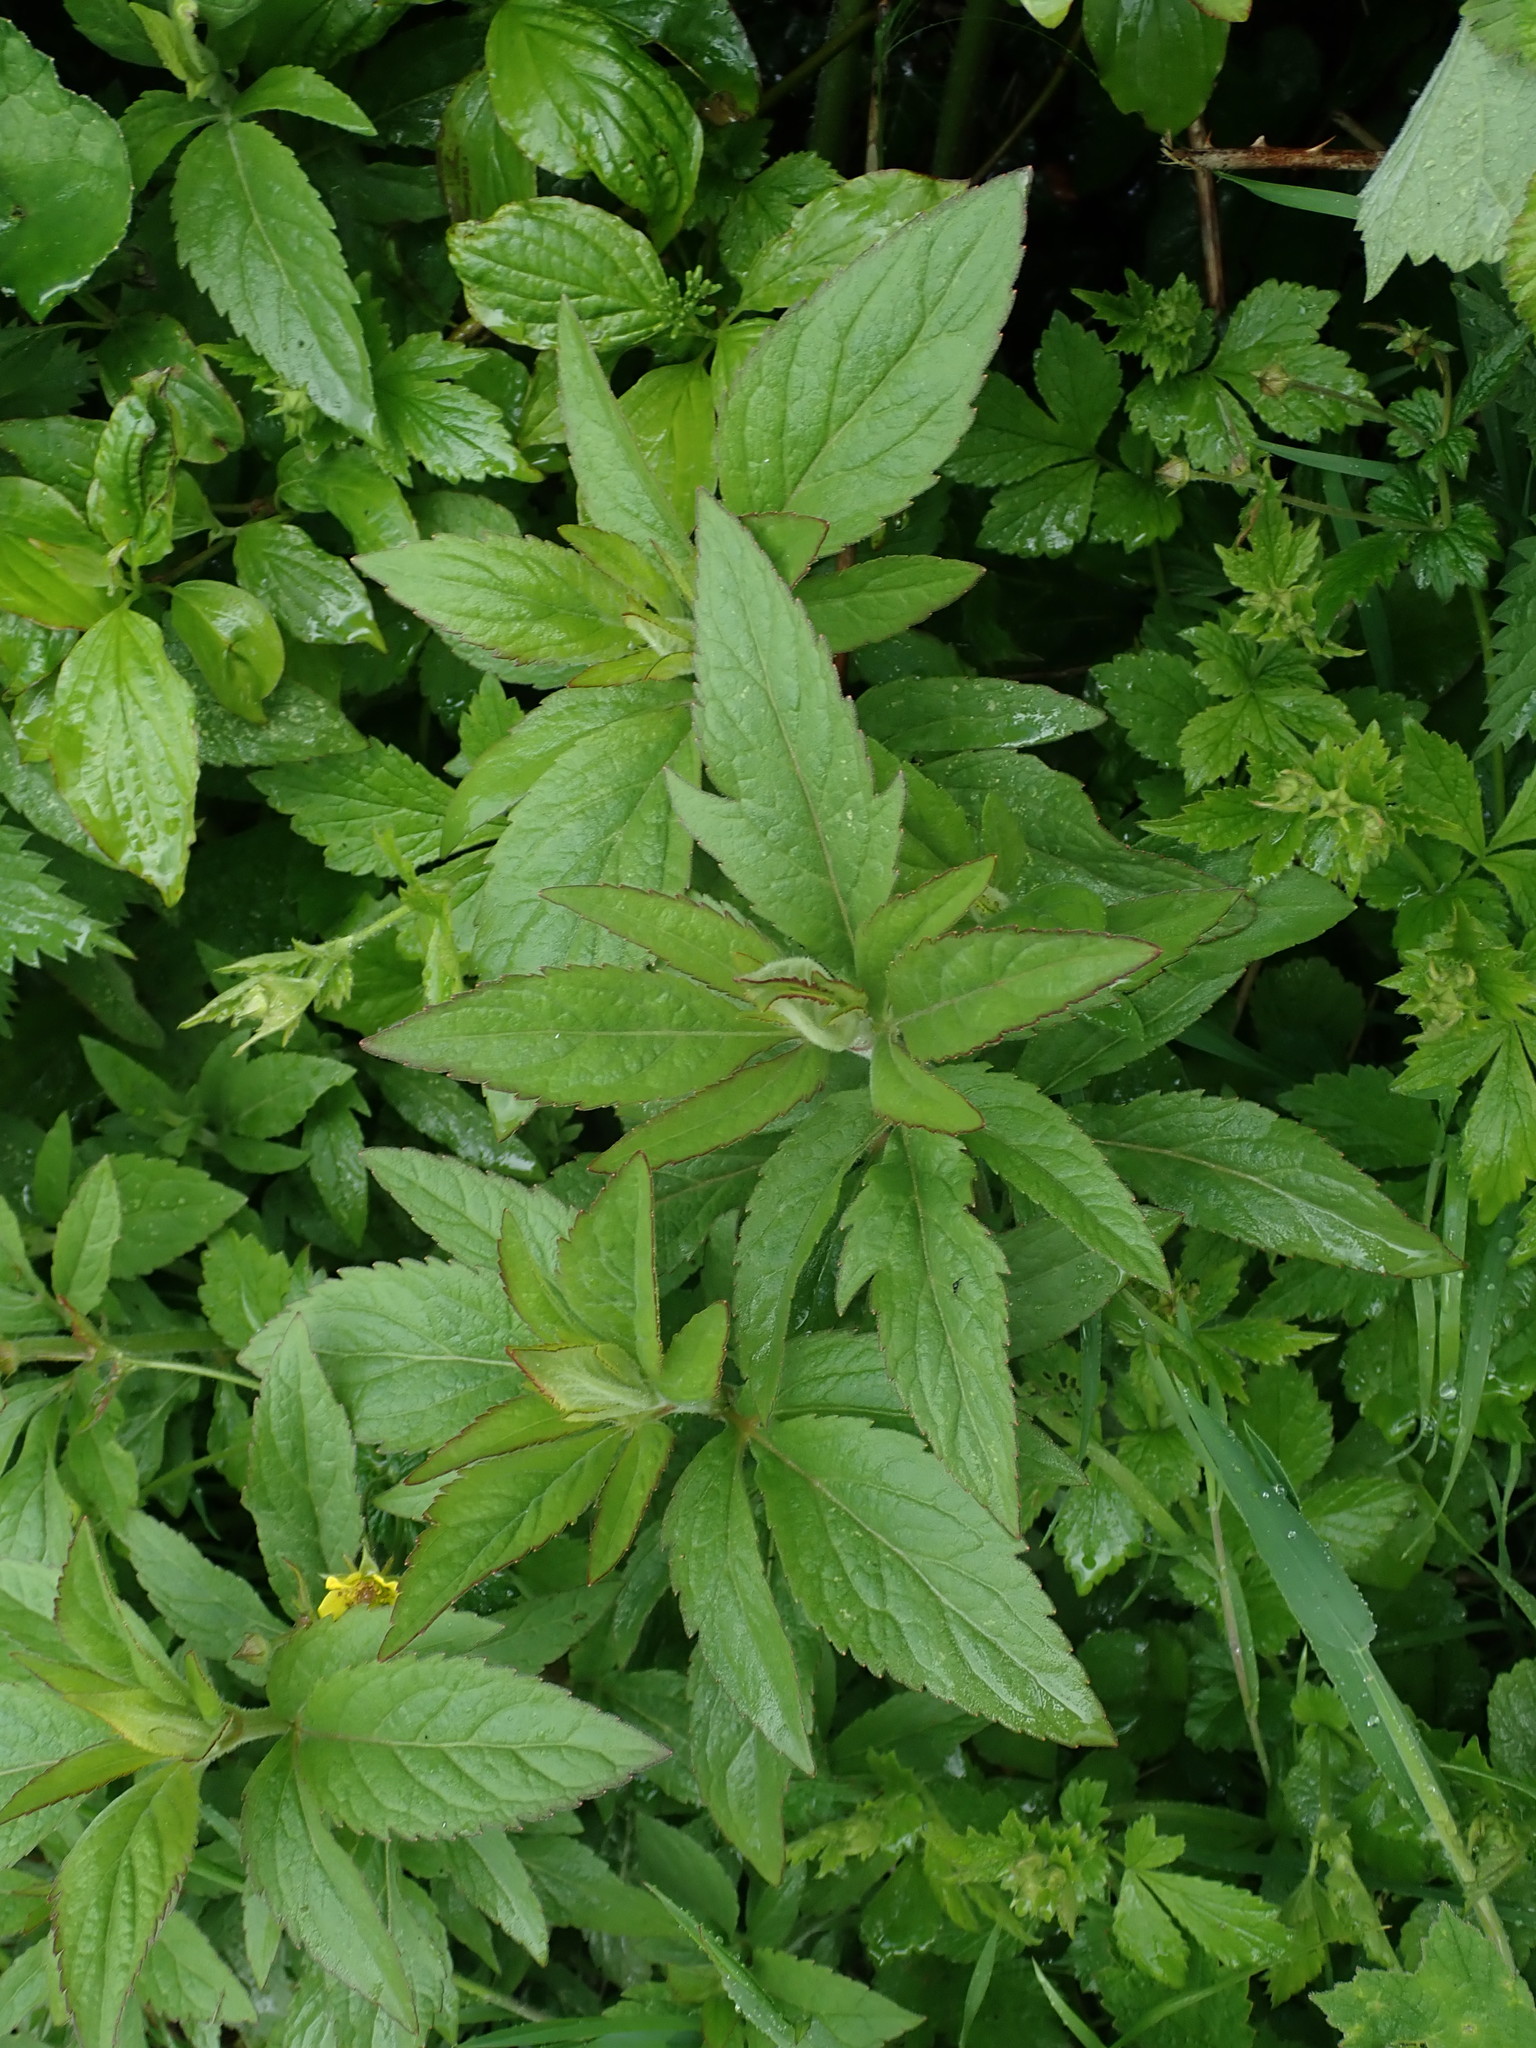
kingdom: Plantae
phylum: Tracheophyta
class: Magnoliopsida
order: Asterales
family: Asteraceae
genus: Eupatorium
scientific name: Eupatorium cannabinum
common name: Hemp-agrimony
